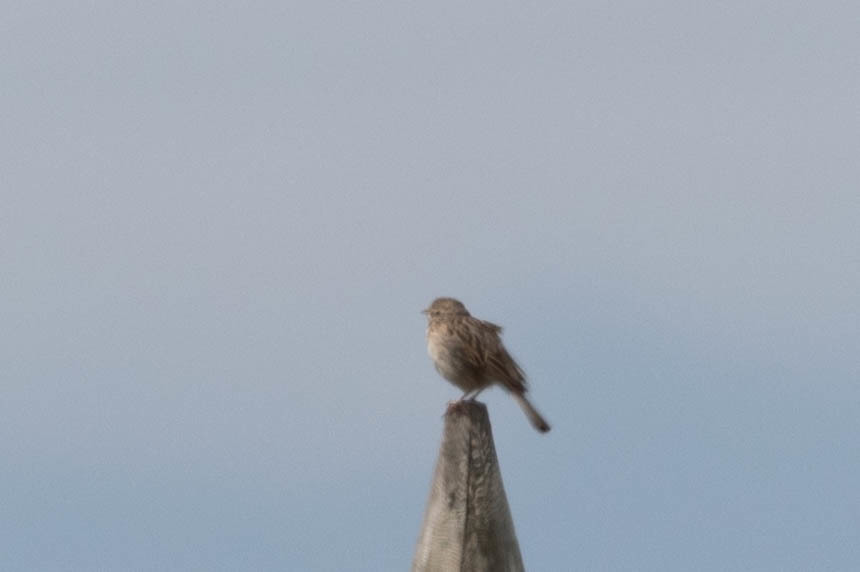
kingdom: Animalia
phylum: Chordata
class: Aves
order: Passeriformes
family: Passerellidae
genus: Pooecetes
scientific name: Pooecetes gramineus
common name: Vesper sparrow
